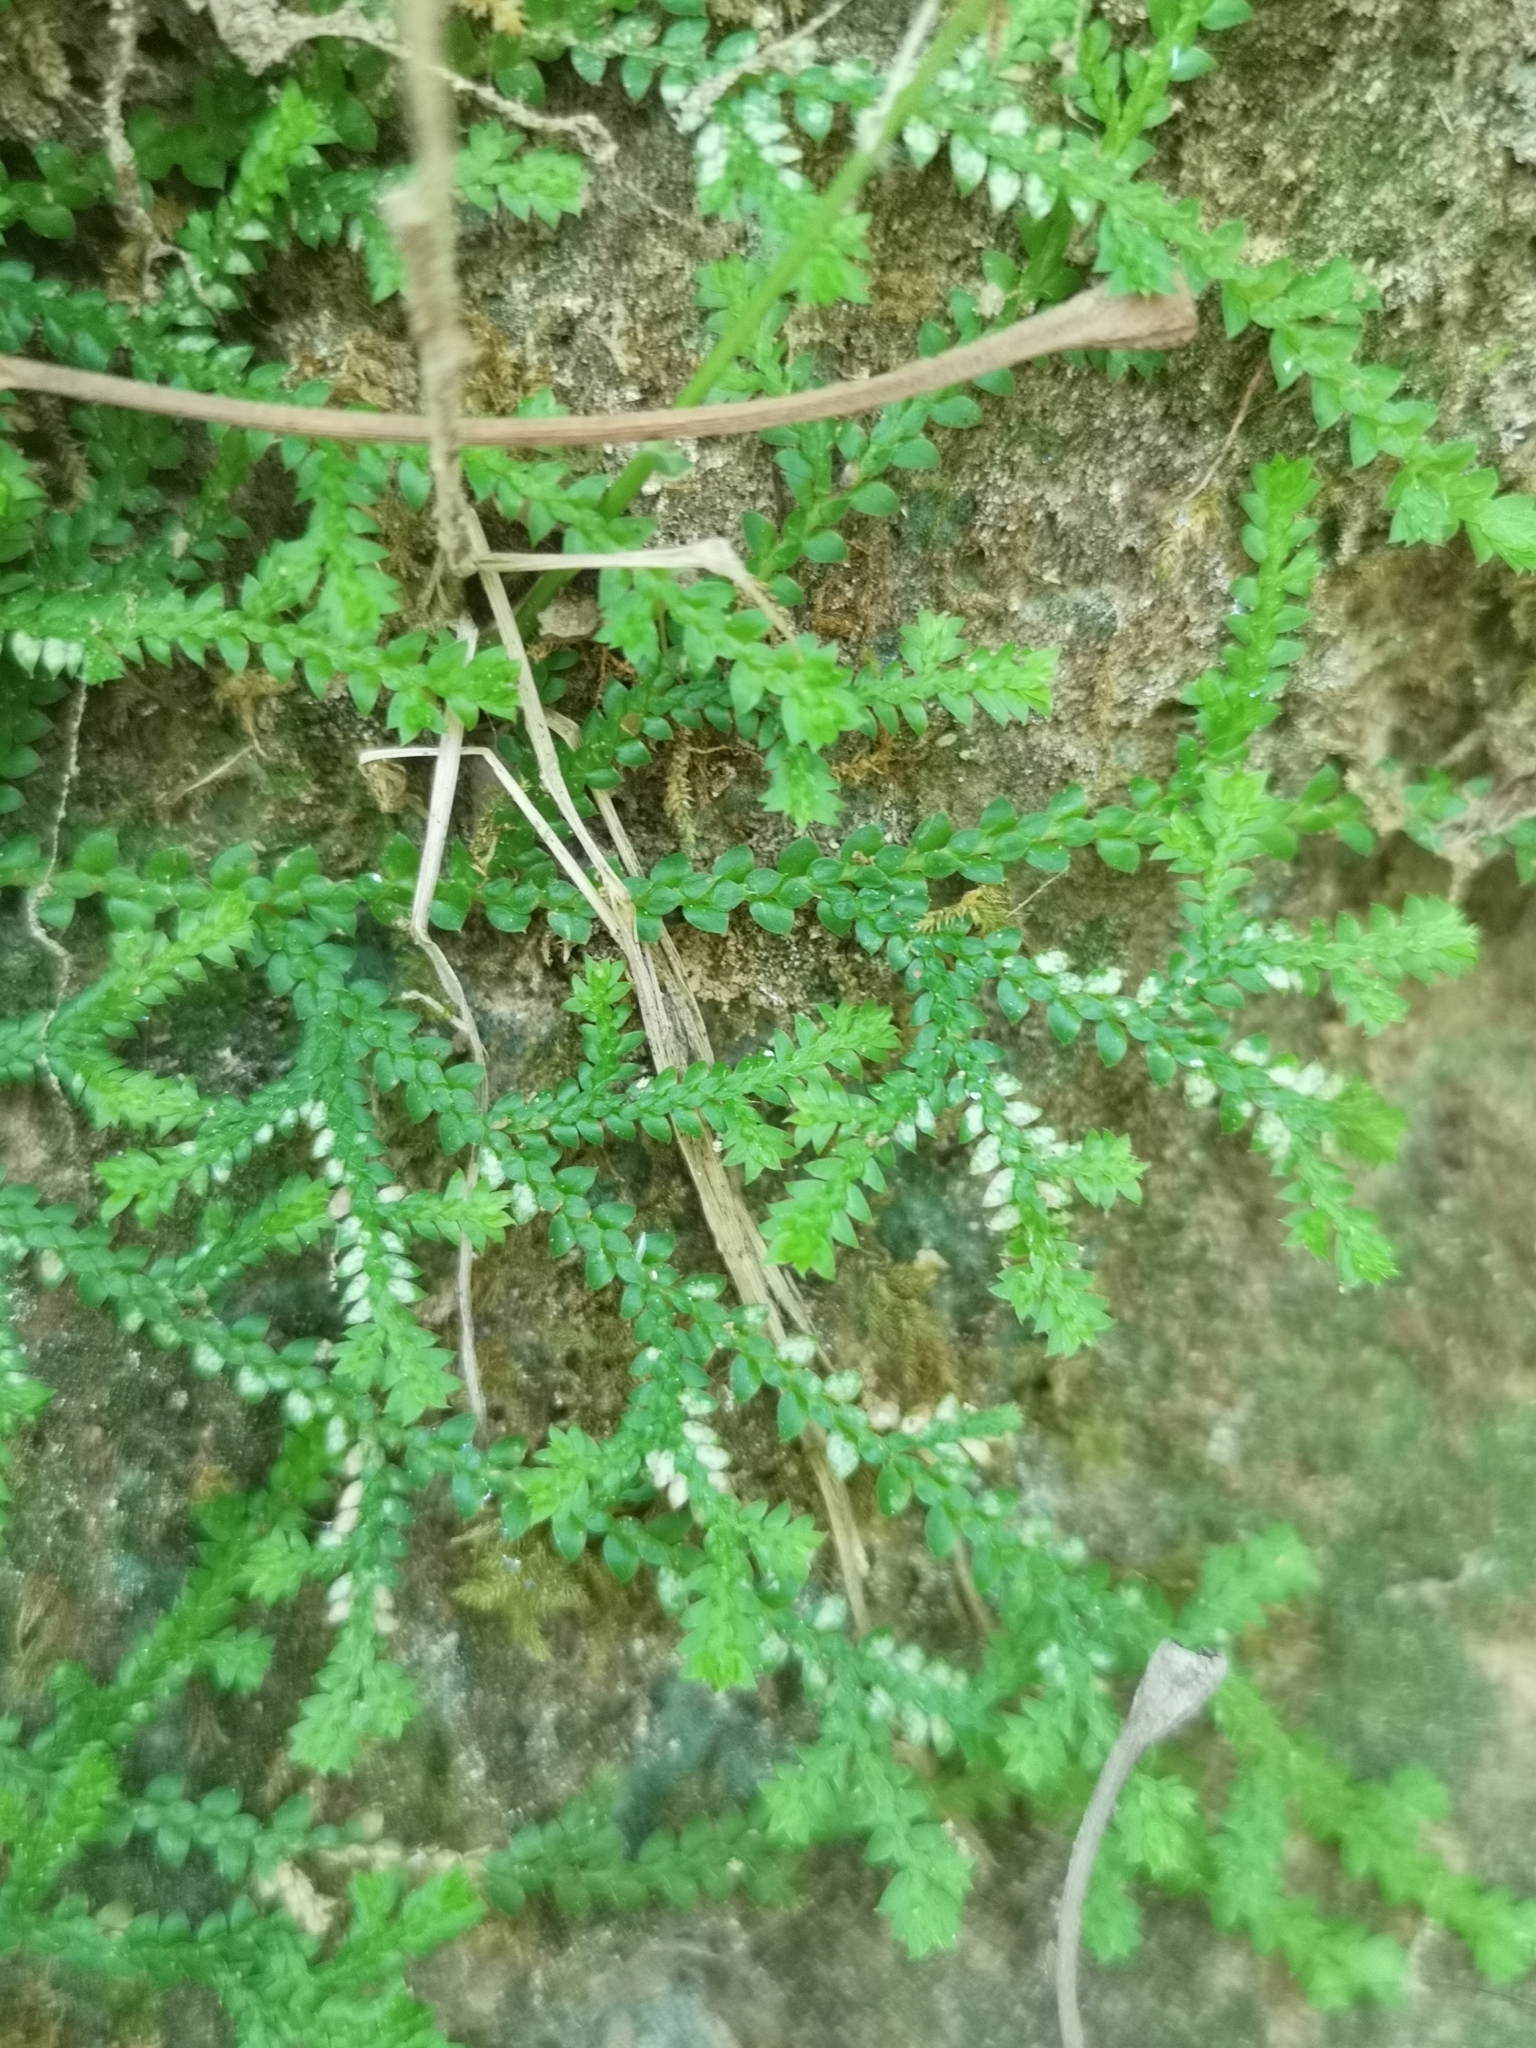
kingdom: Plantae
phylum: Tracheophyta
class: Lycopodiopsida
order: Selaginellales
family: Selaginellaceae
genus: Selaginella
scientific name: Selaginella denticulata
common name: Toothed-leaved clubmoss
